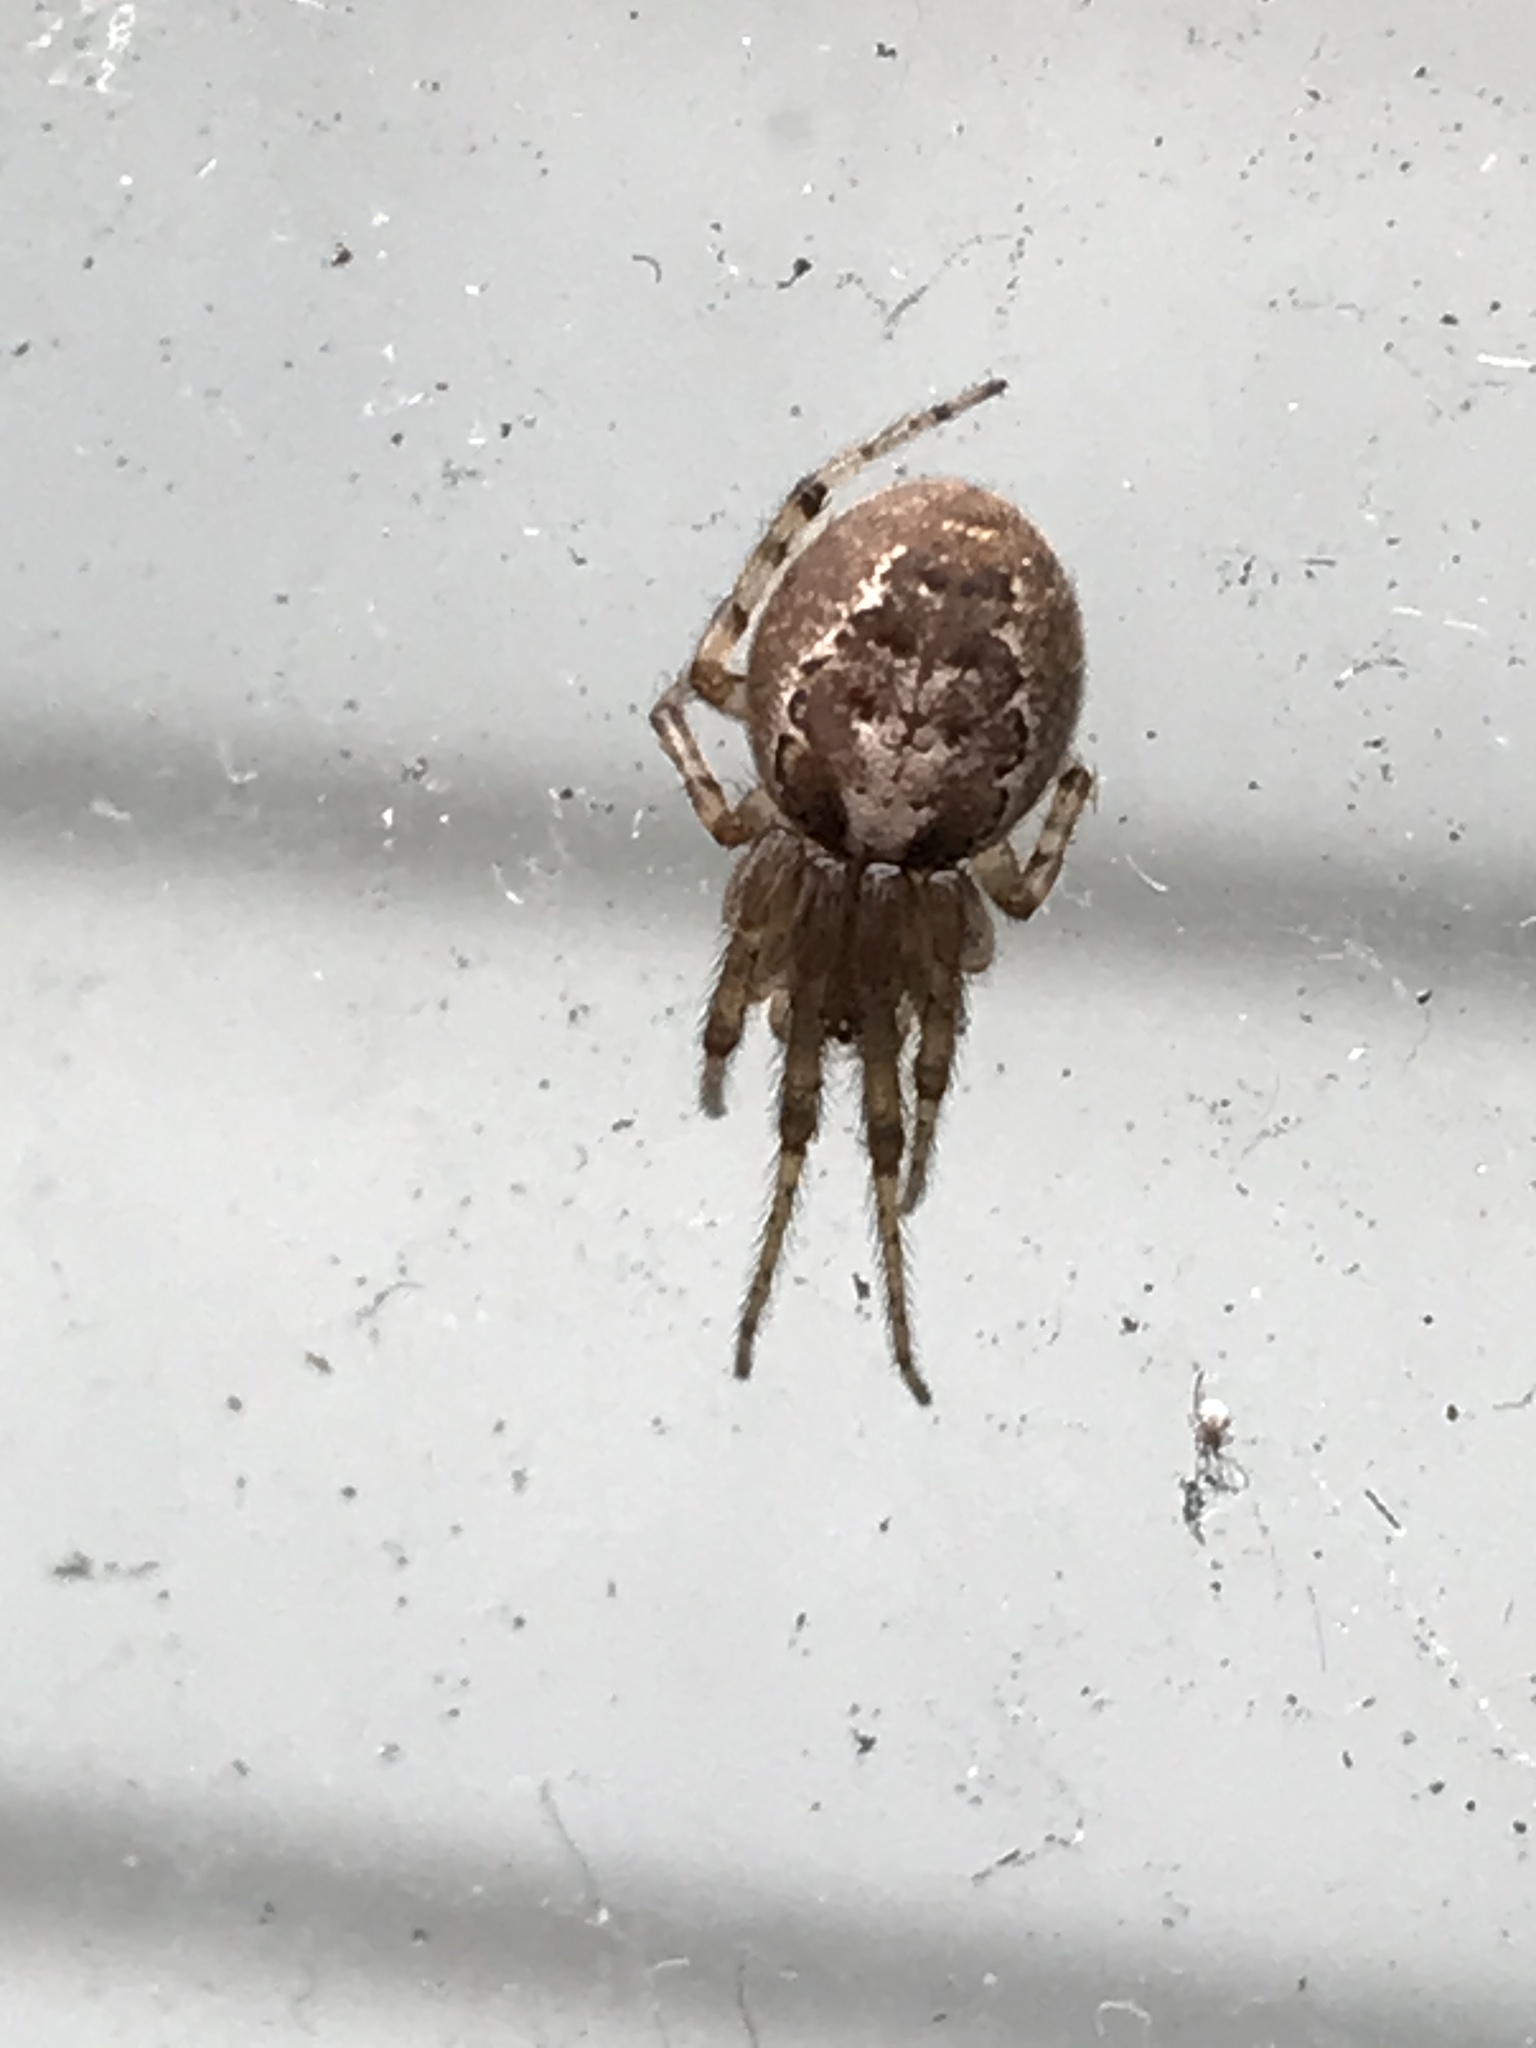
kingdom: Animalia
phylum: Arthropoda
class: Arachnida
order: Araneae
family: Araneidae
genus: Zygiella
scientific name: Zygiella x-notata
